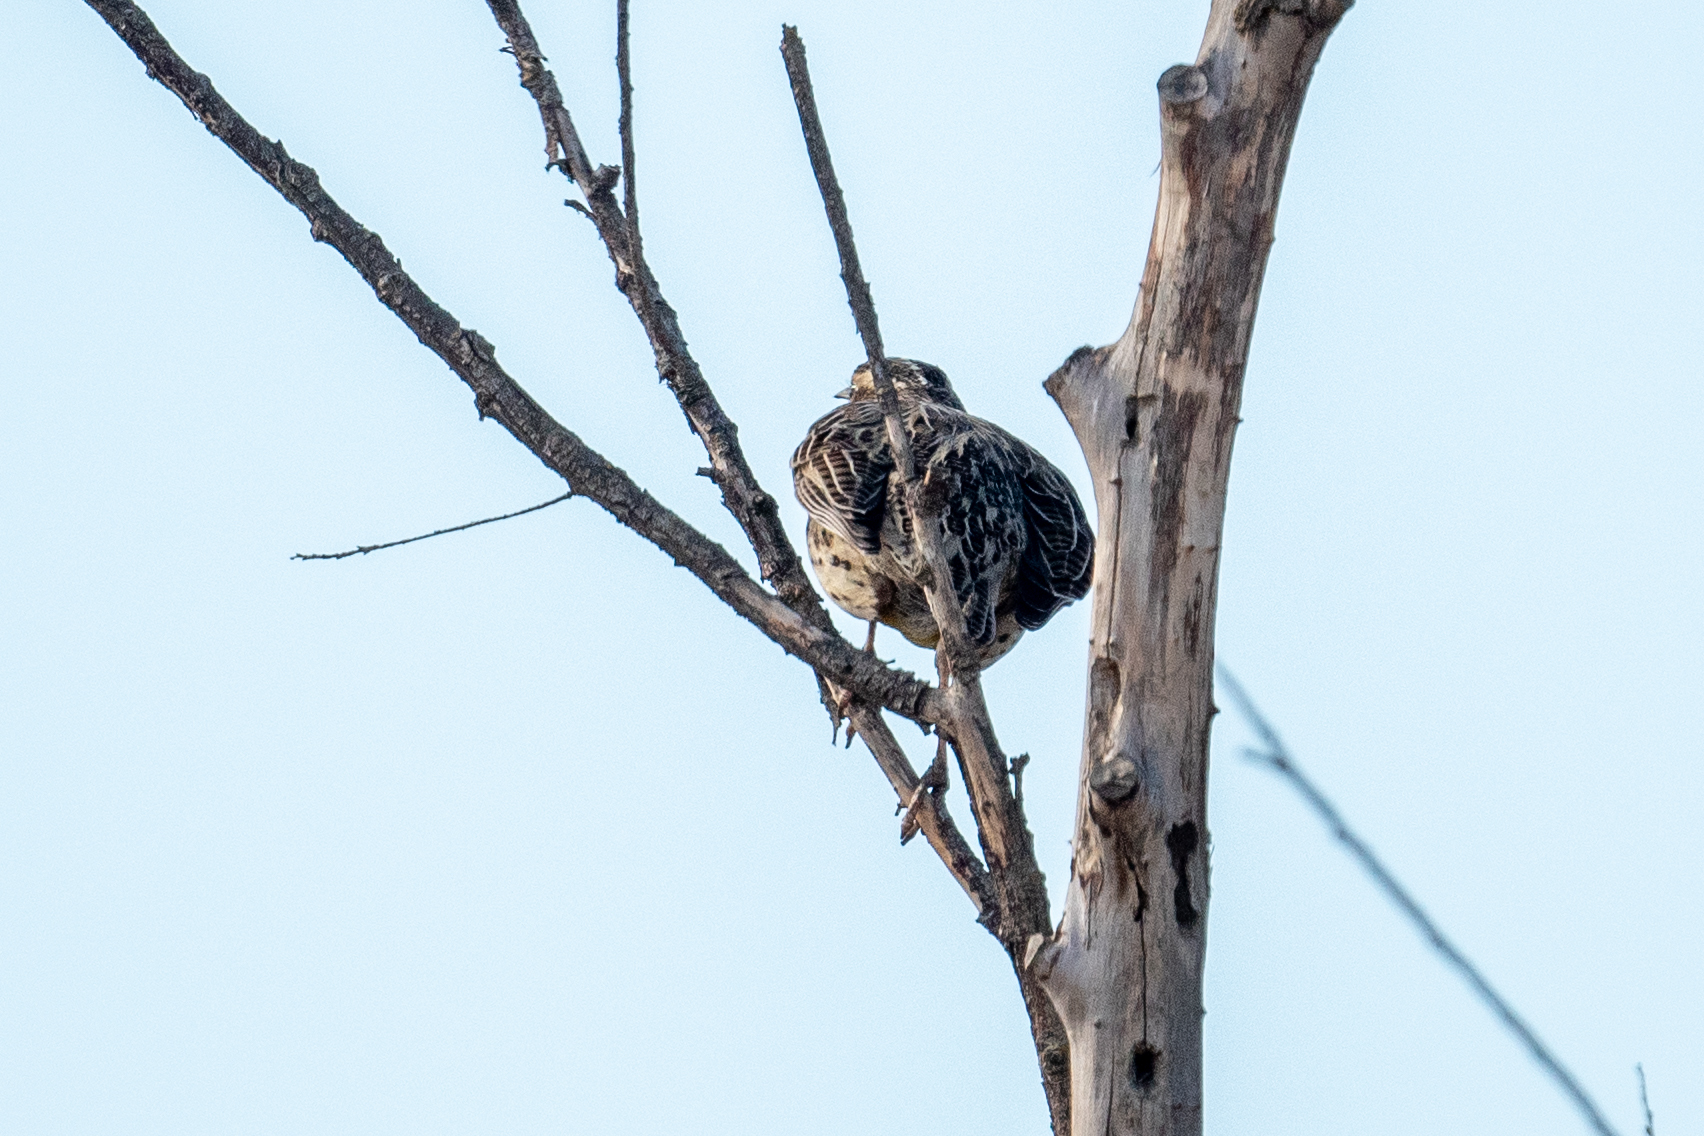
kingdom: Animalia
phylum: Chordata
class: Aves
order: Passeriformes
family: Icteridae
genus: Sturnella
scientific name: Sturnella neglecta
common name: Western meadowlark
